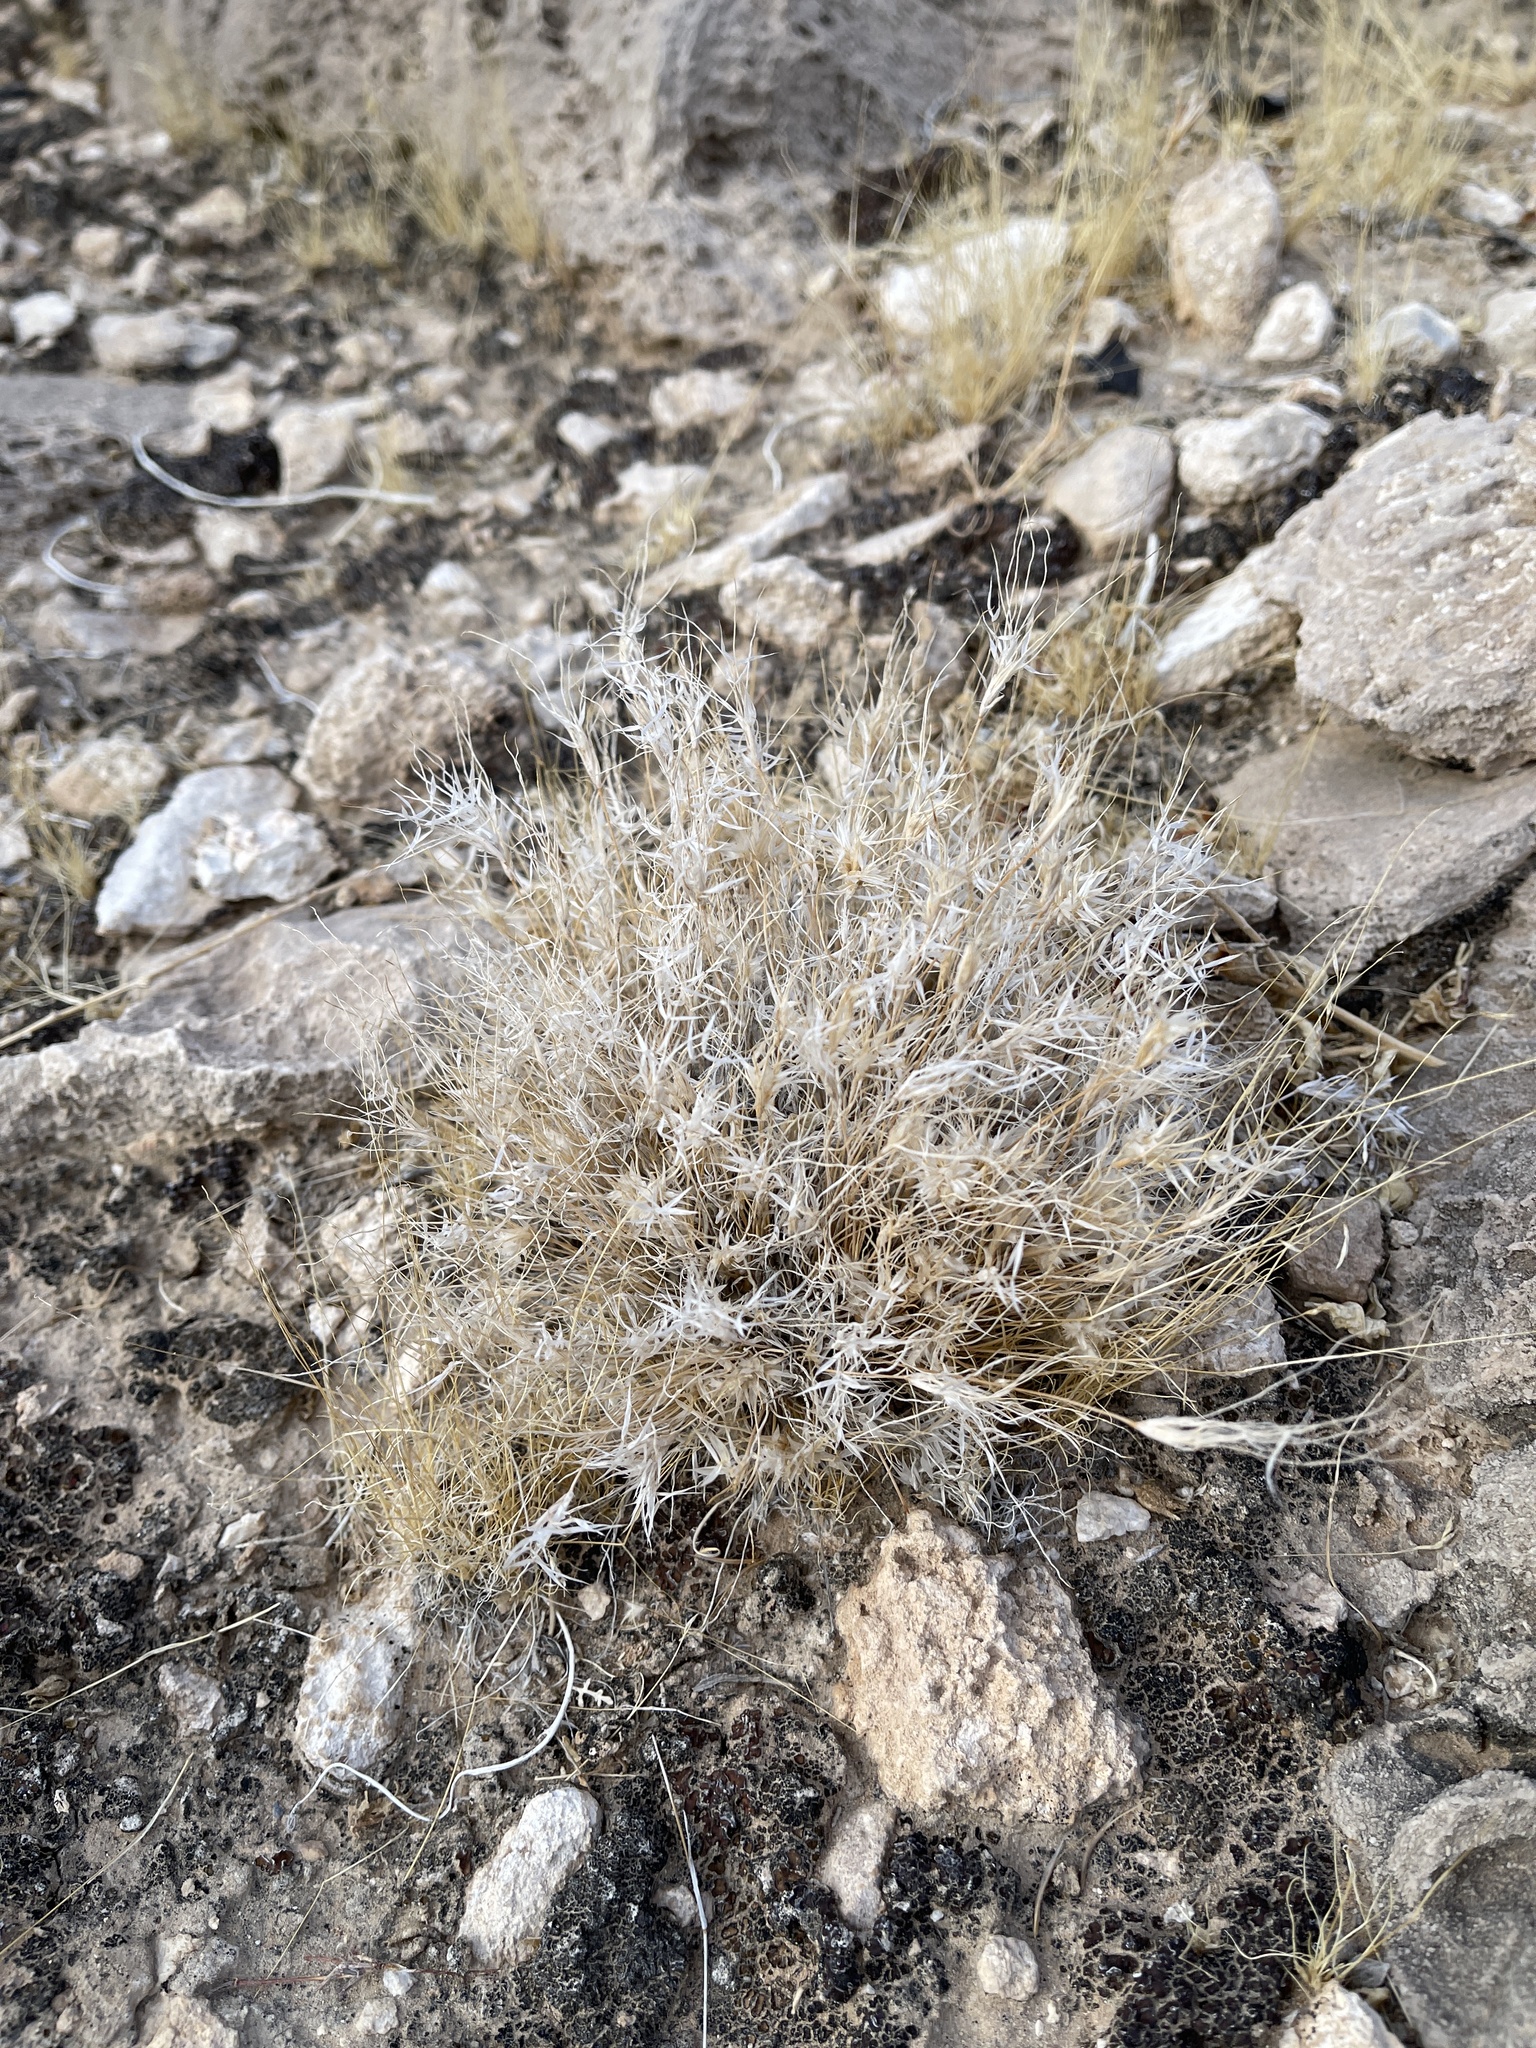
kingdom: Plantae
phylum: Tracheophyta
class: Liliopsida
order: Poales
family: Poaceae
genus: Dasyochloa
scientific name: Dasyochloa pulchella
